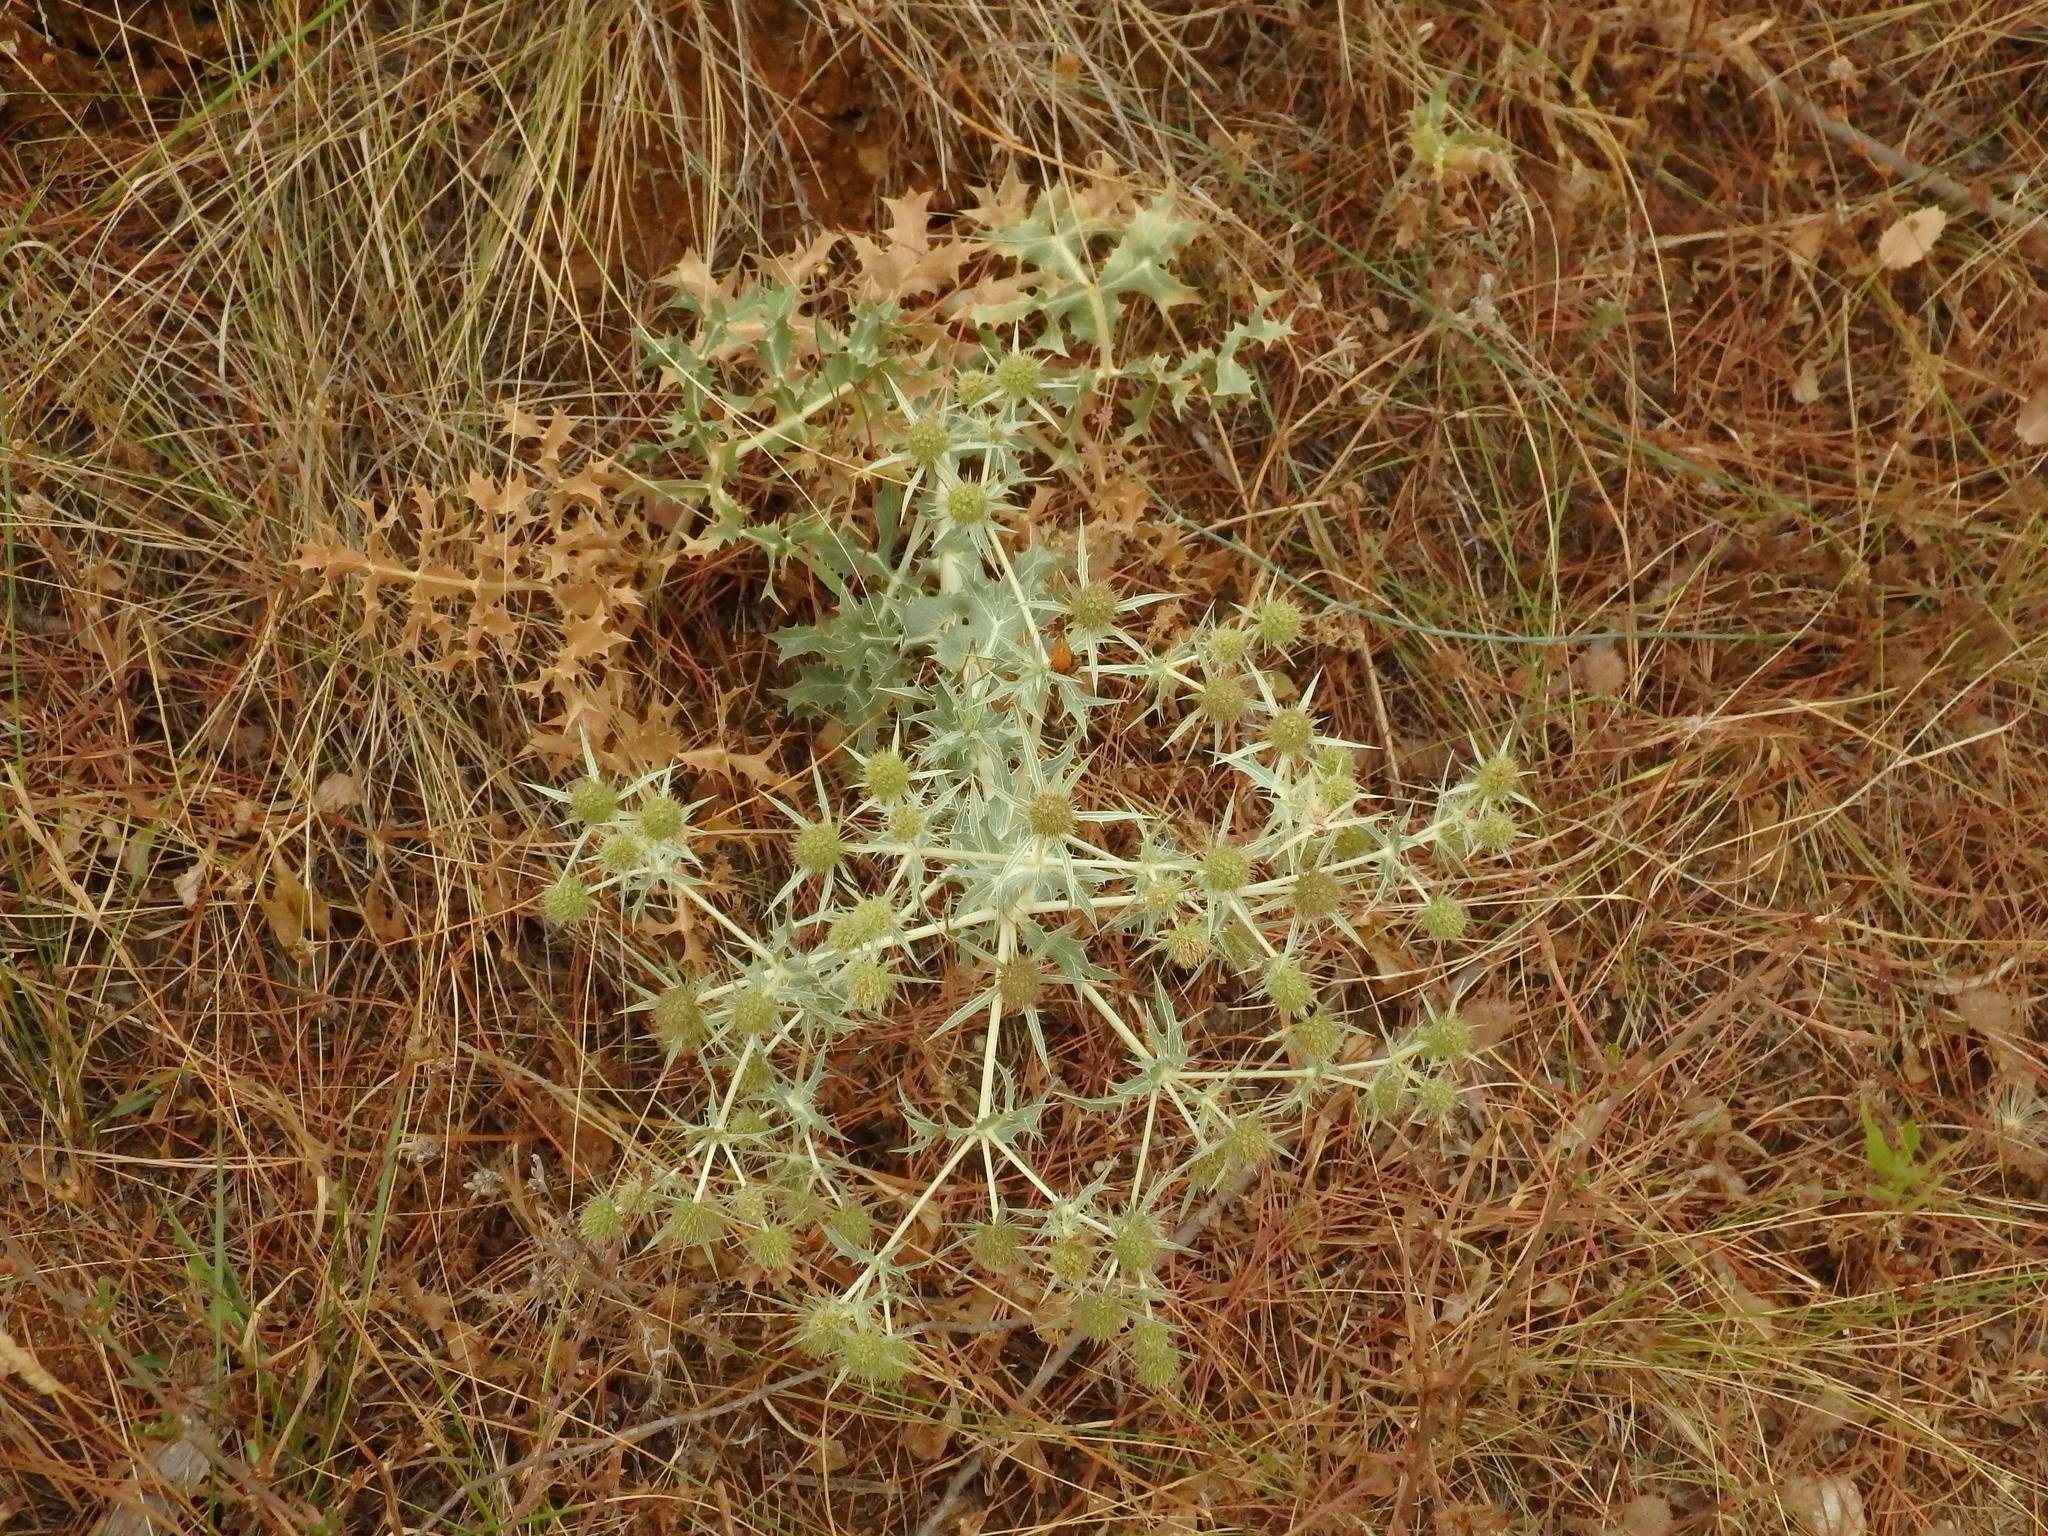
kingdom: Plantae
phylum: Tracheophyta
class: Magnoliopsida
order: Apiales
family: Apiaceae
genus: Eryngium
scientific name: Eryngium campestre
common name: Field eryngo
